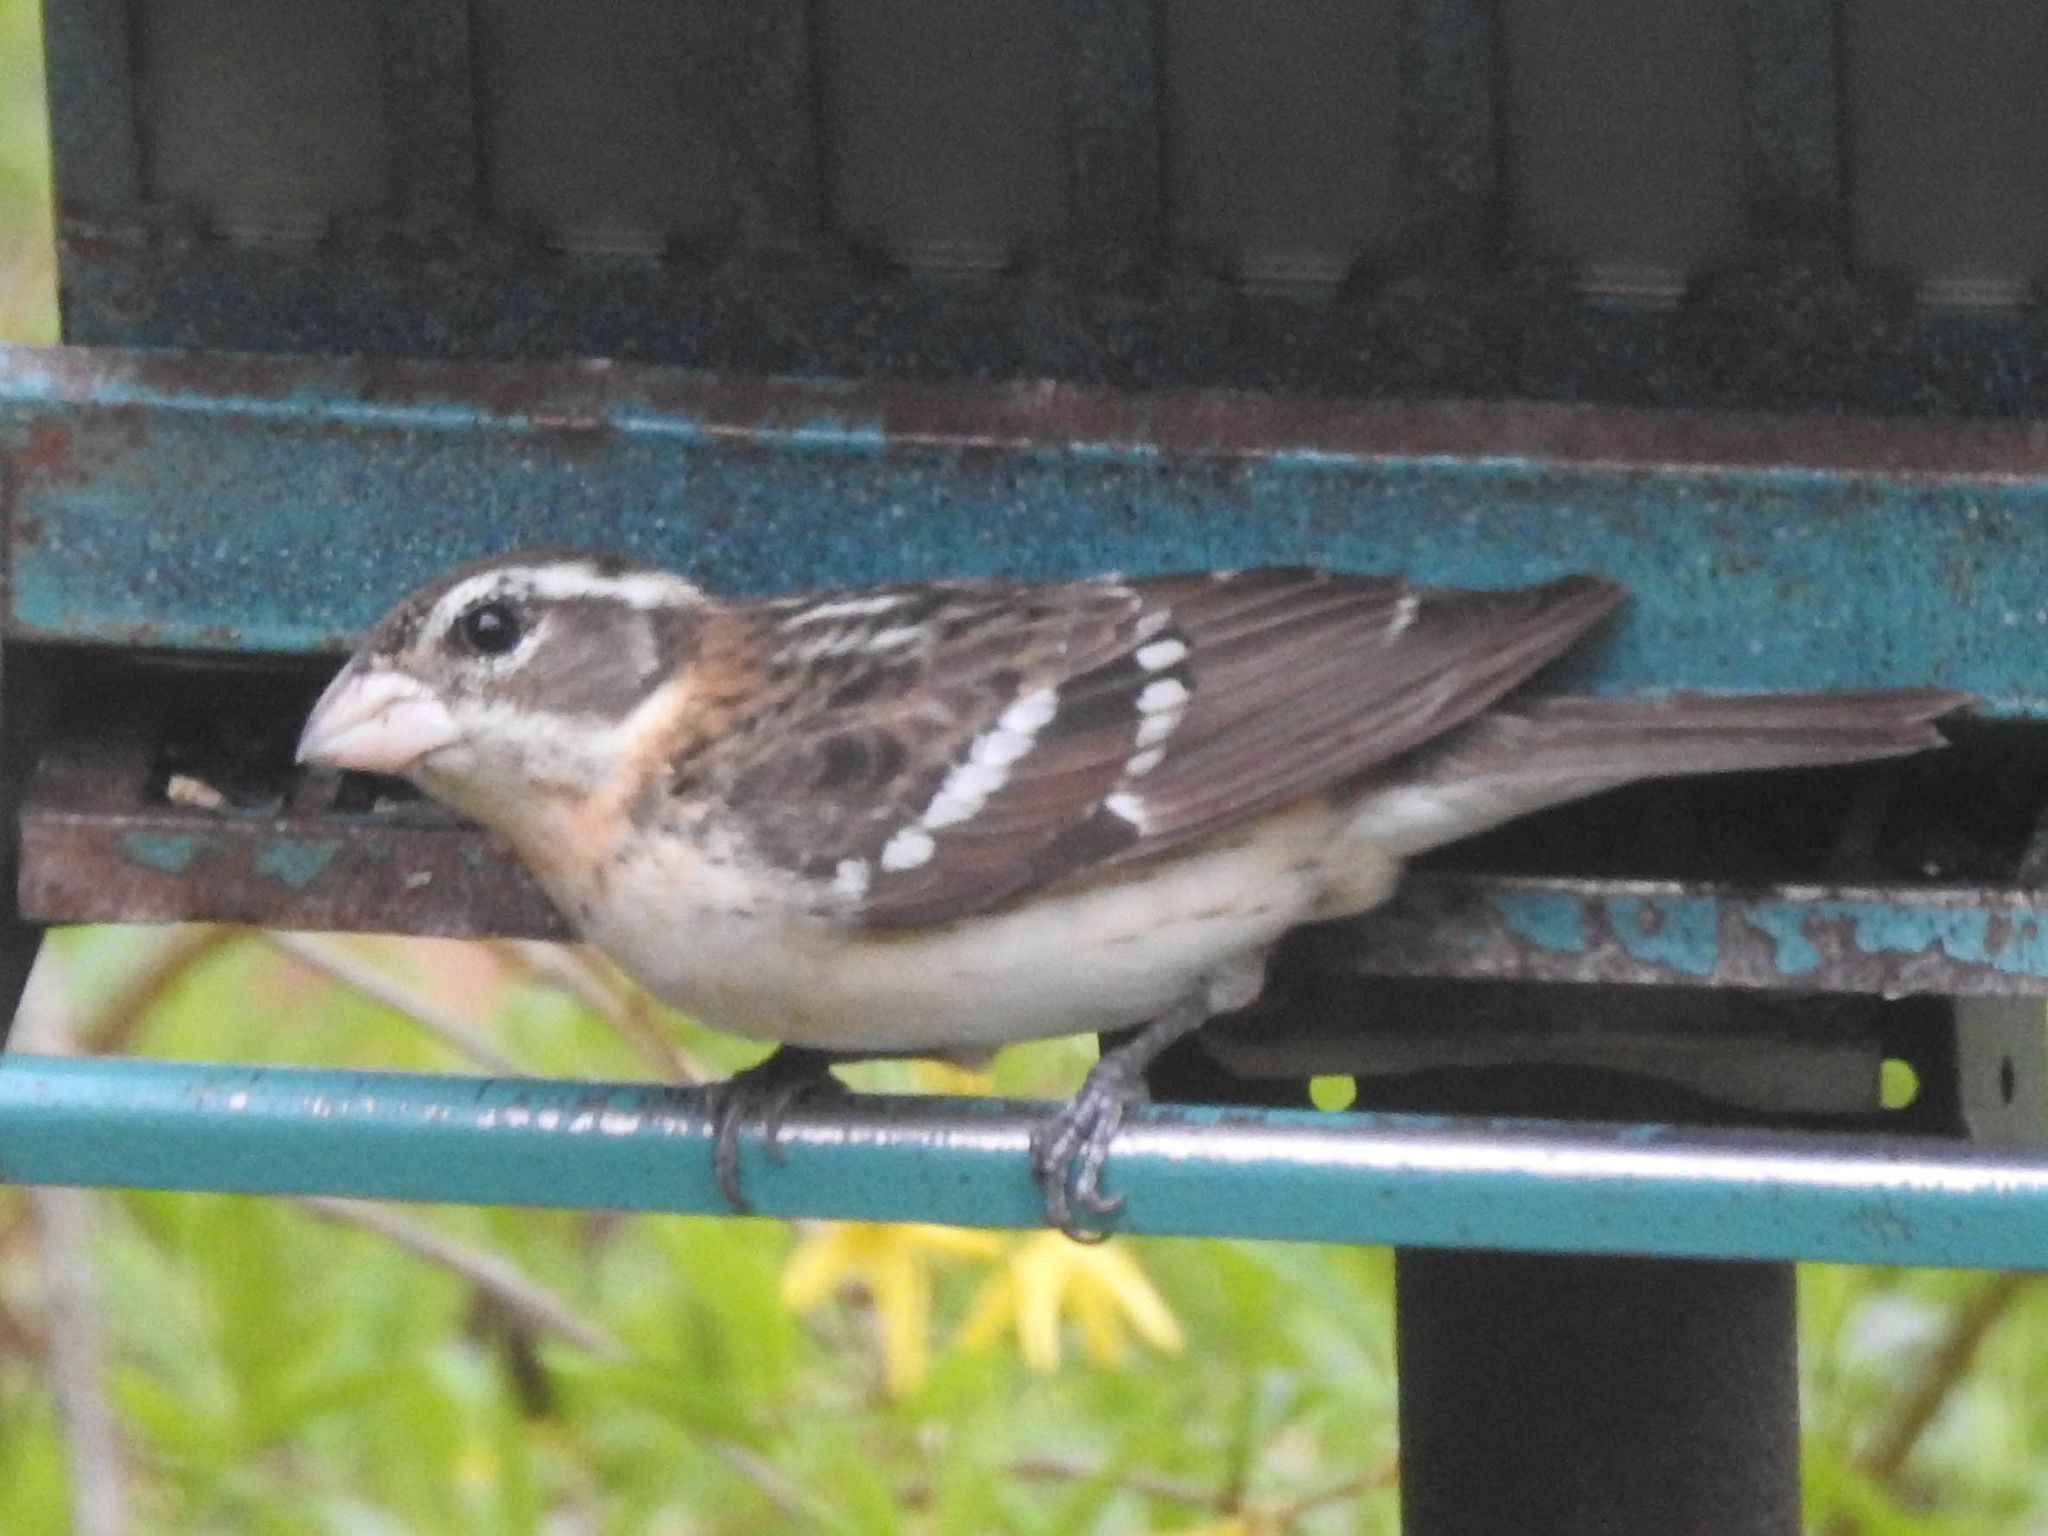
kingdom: Animalia
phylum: Chordata
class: Aves
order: Passeriformes
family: Cardinalidae
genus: Pheucticus
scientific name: Pheucticus ludovicianus
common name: Rose-breasted grosbeak
